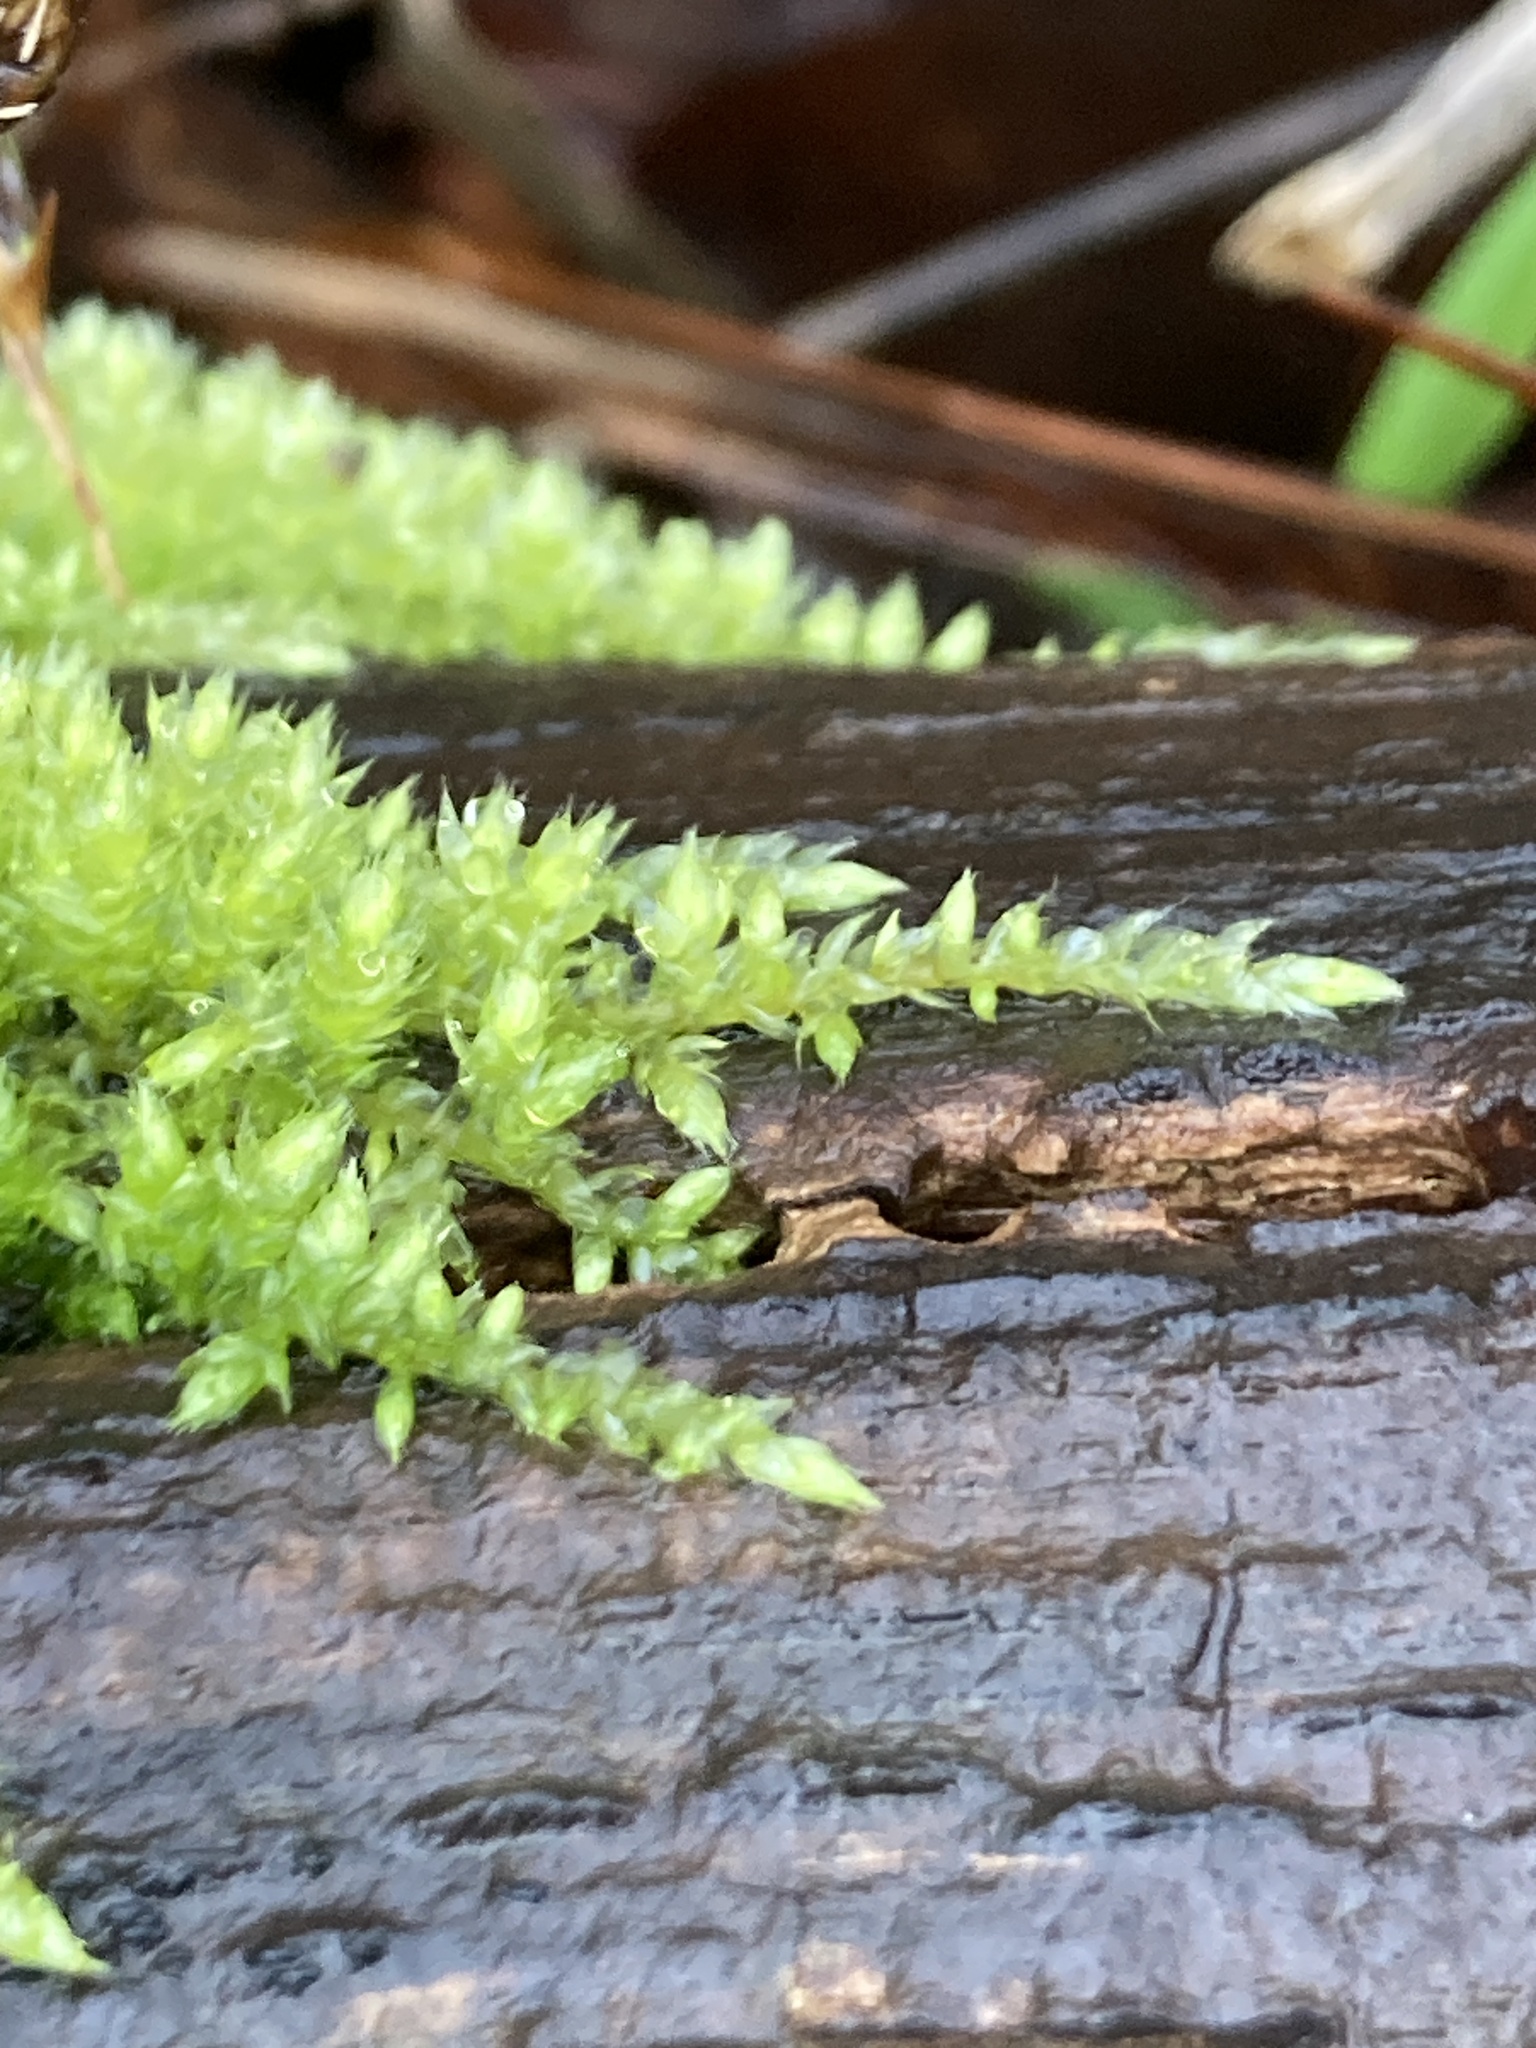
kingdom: Plantae
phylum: Bryophyta
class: Bryopsida
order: Hypnales
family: Brachytheciaceae
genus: Brachythecium
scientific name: Brachythecium rutabulum
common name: Rough-stalked feather-moss
